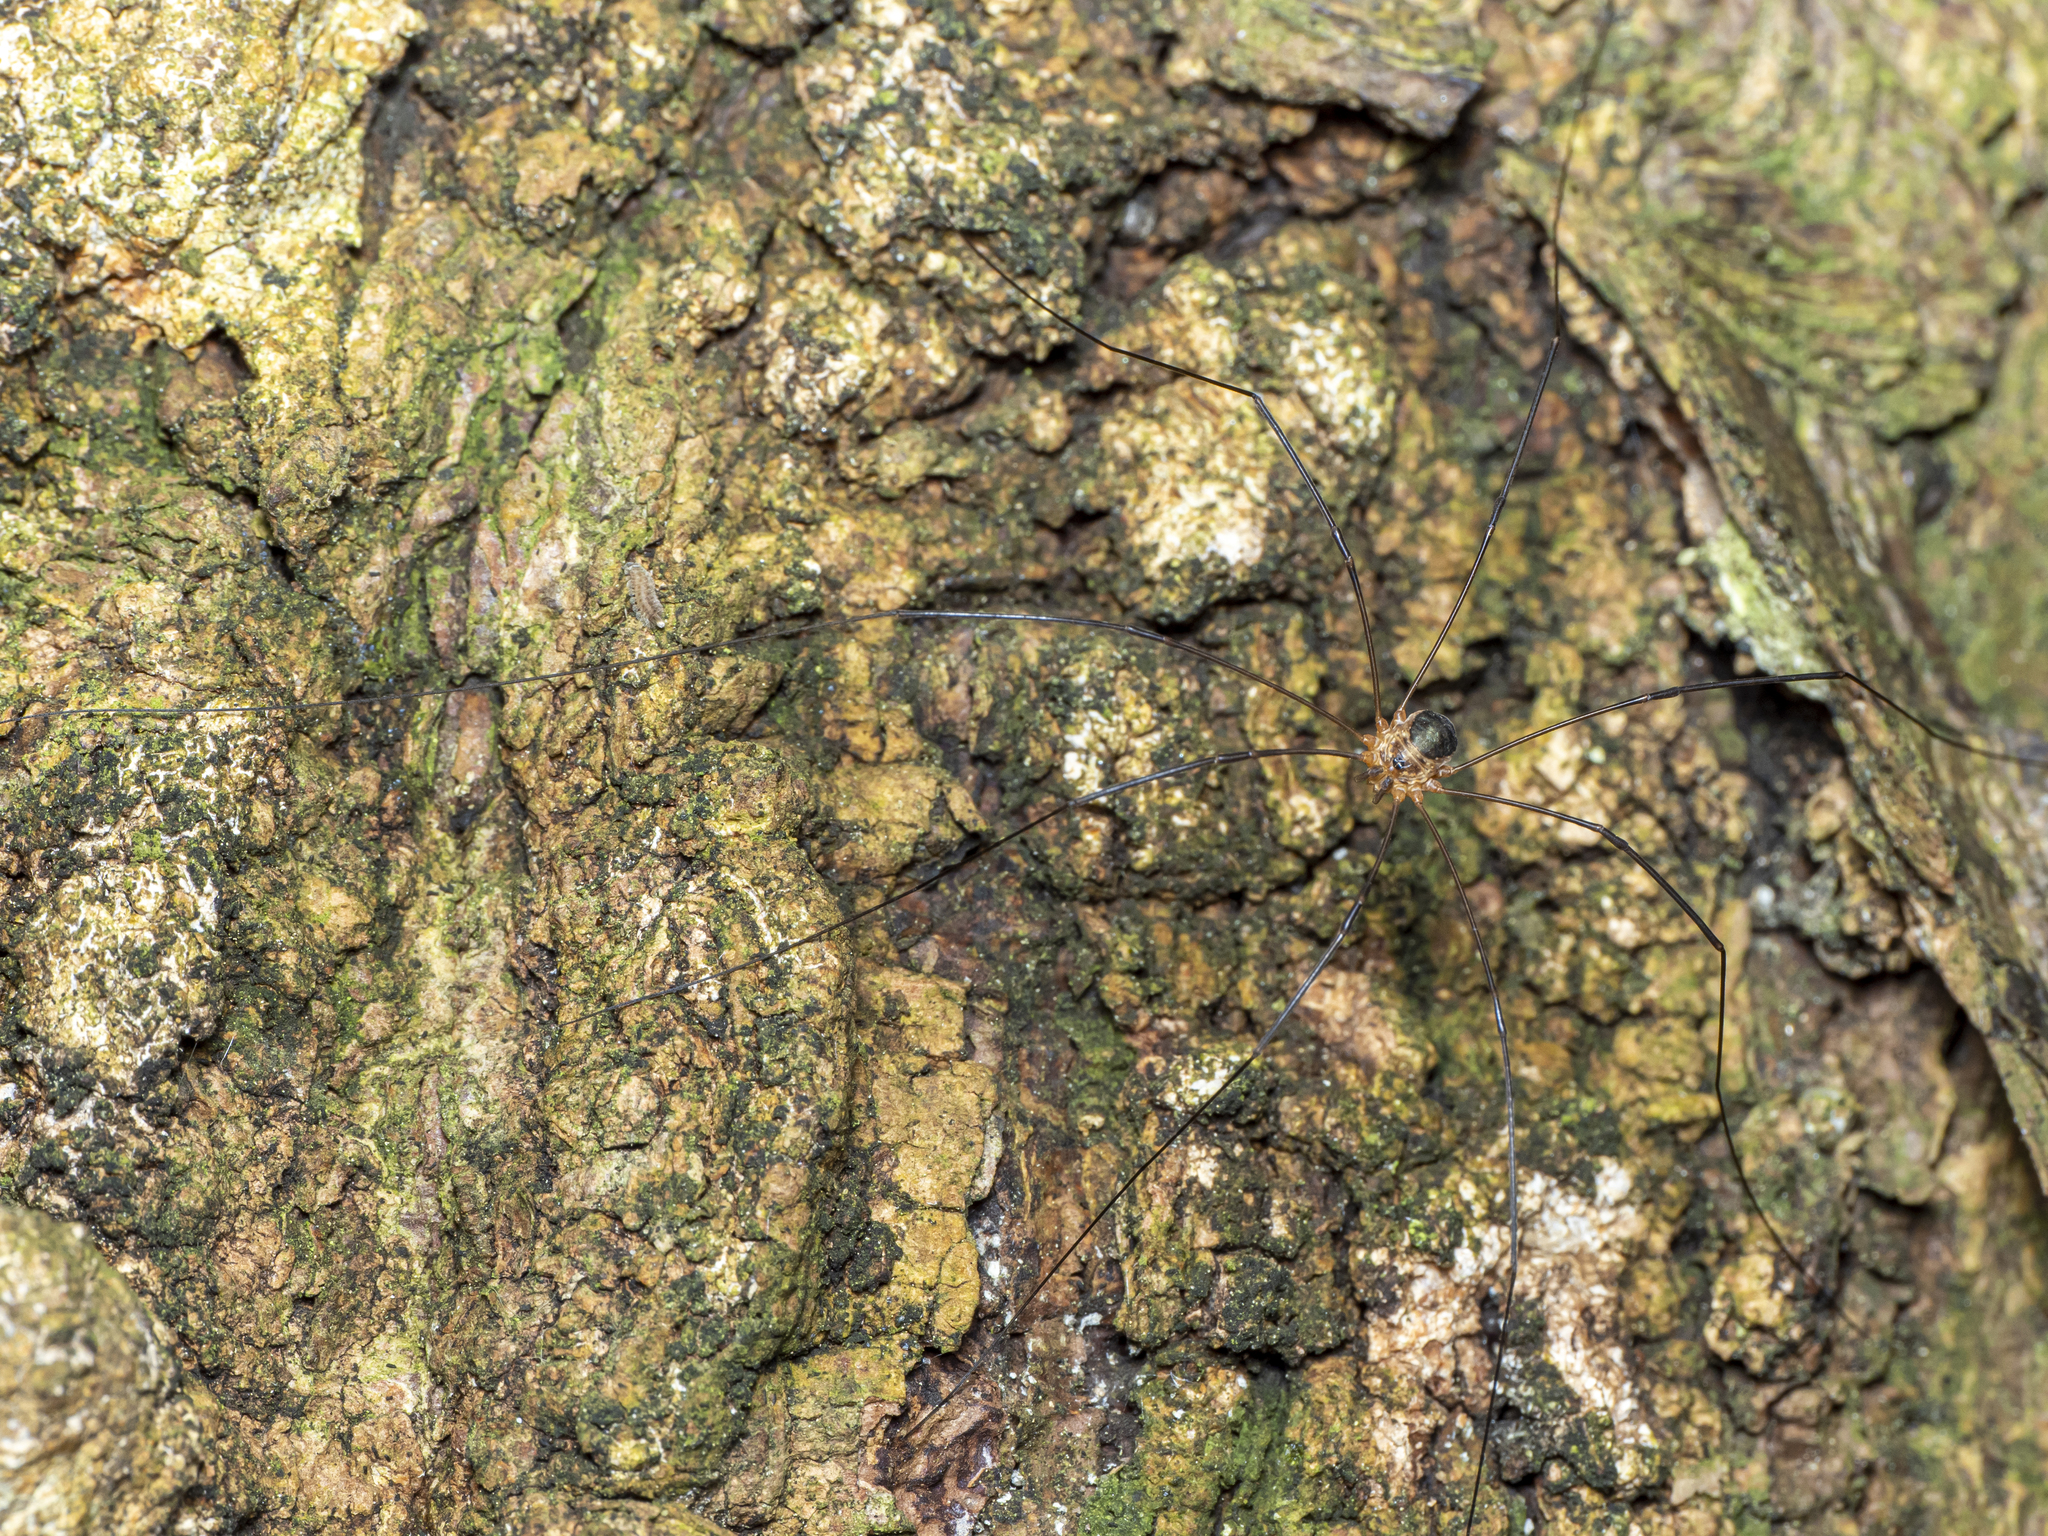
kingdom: Animalia
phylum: Arthropoda
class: Arachnida
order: Opiliones
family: Phalangiidae
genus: Amilenus
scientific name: Amilenus aurantiacus
